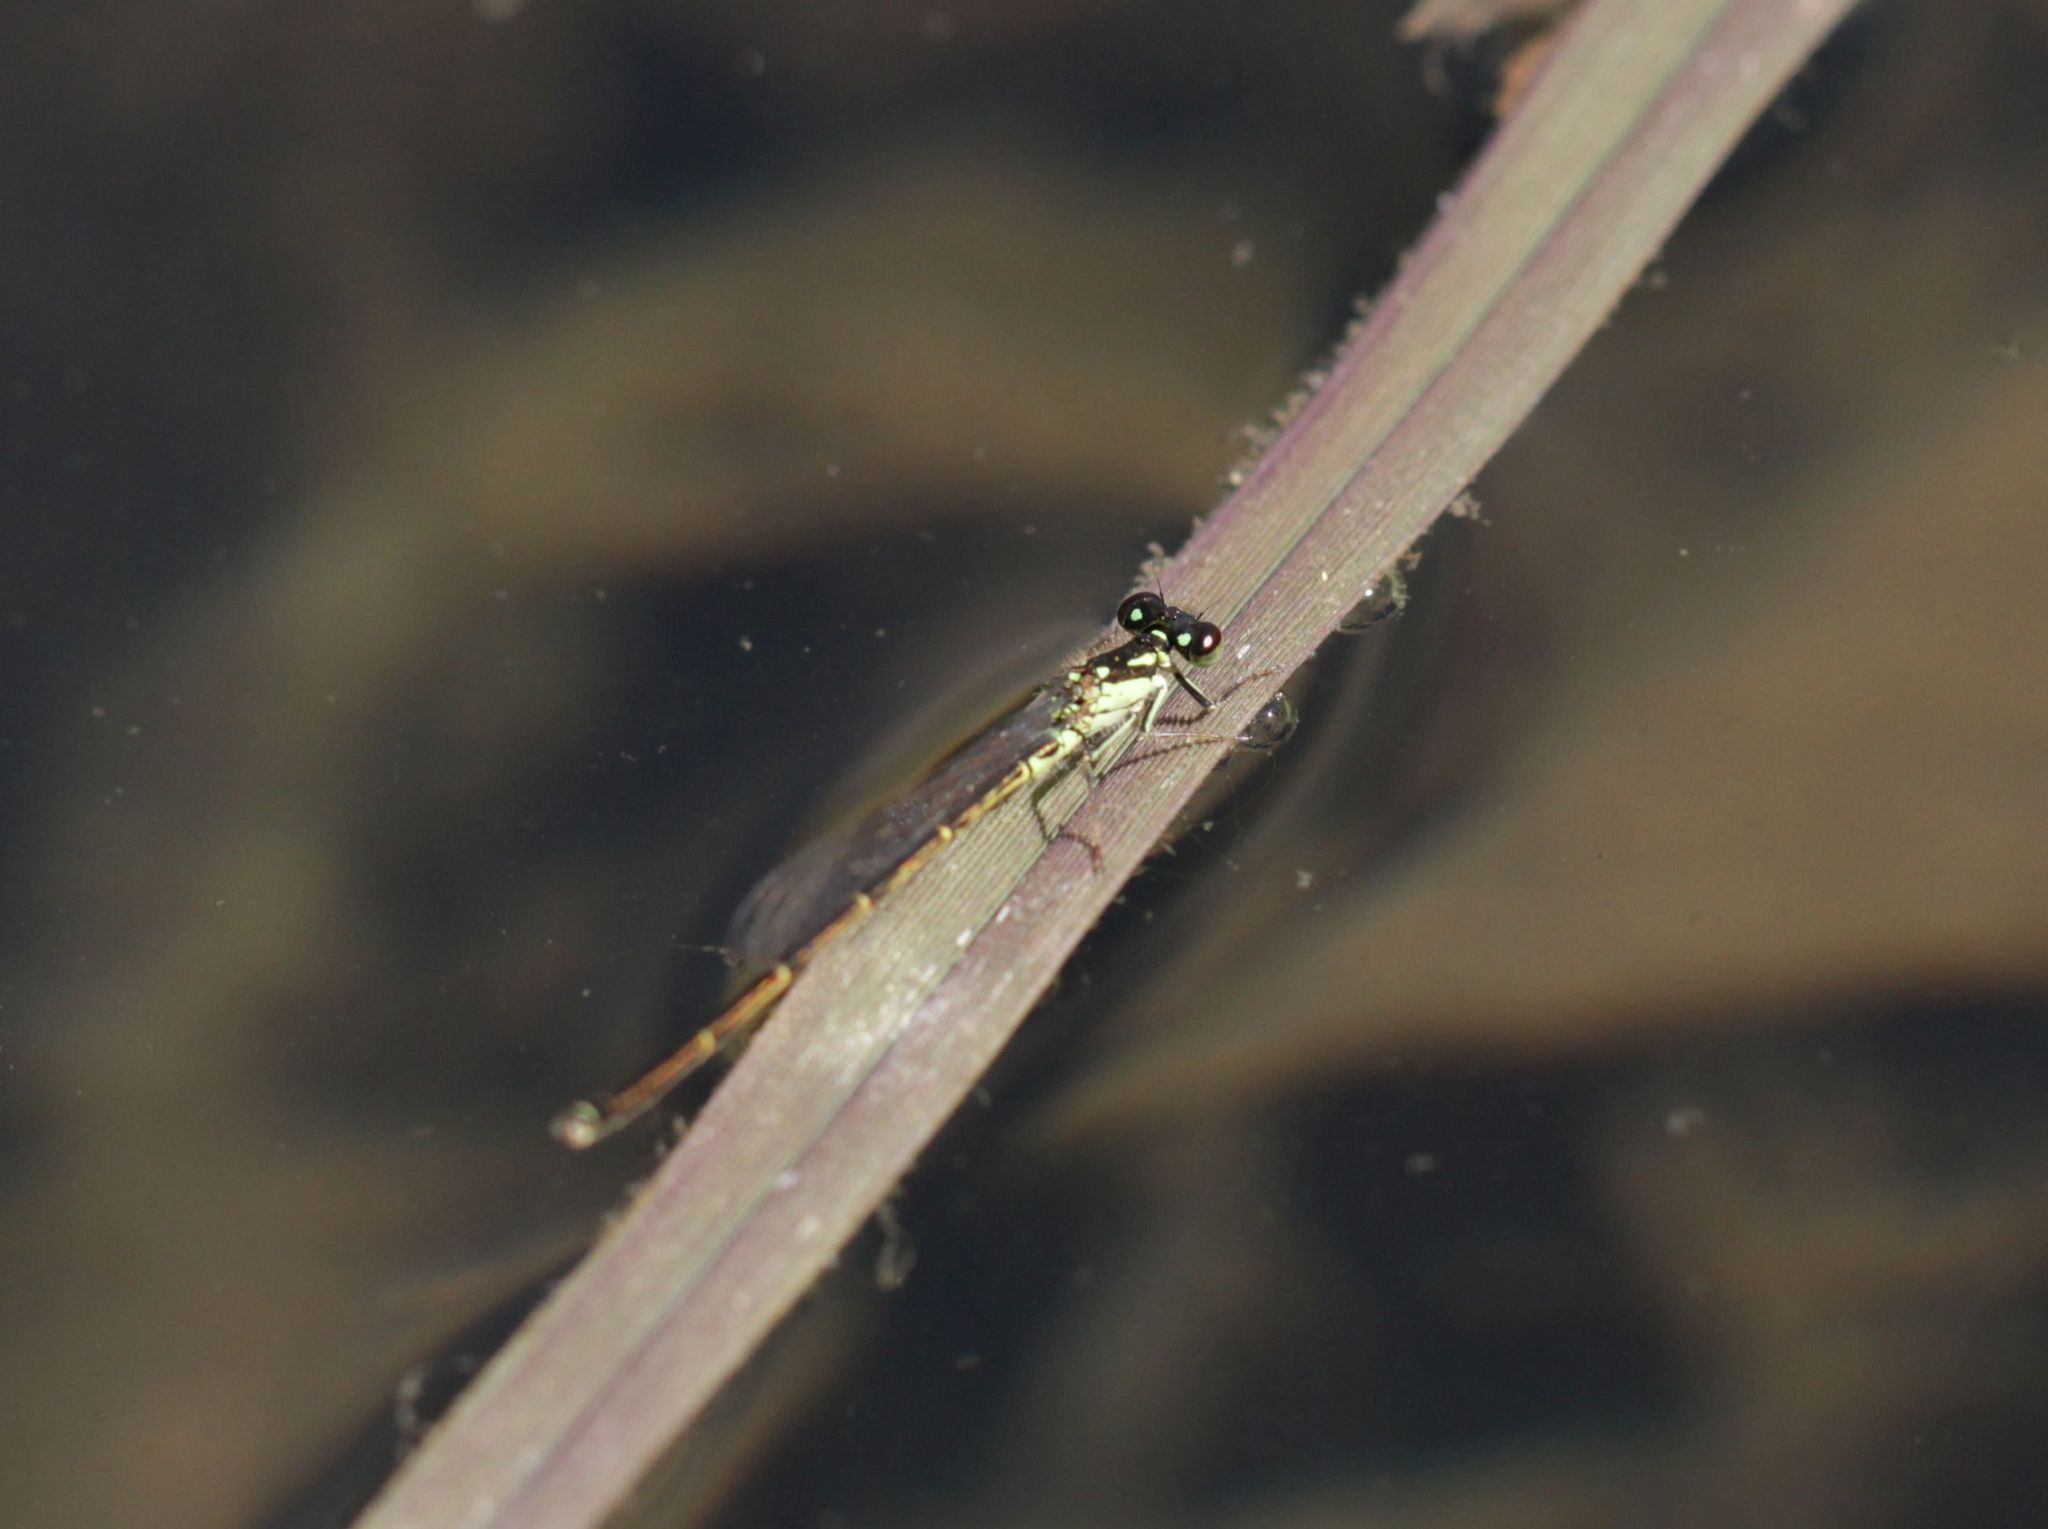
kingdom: Animalia
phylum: Arthropoda
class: Insecta
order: Odonata
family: Coenagrionidae
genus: Ischnura
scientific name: Ischnura posita
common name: Fragile forktail
